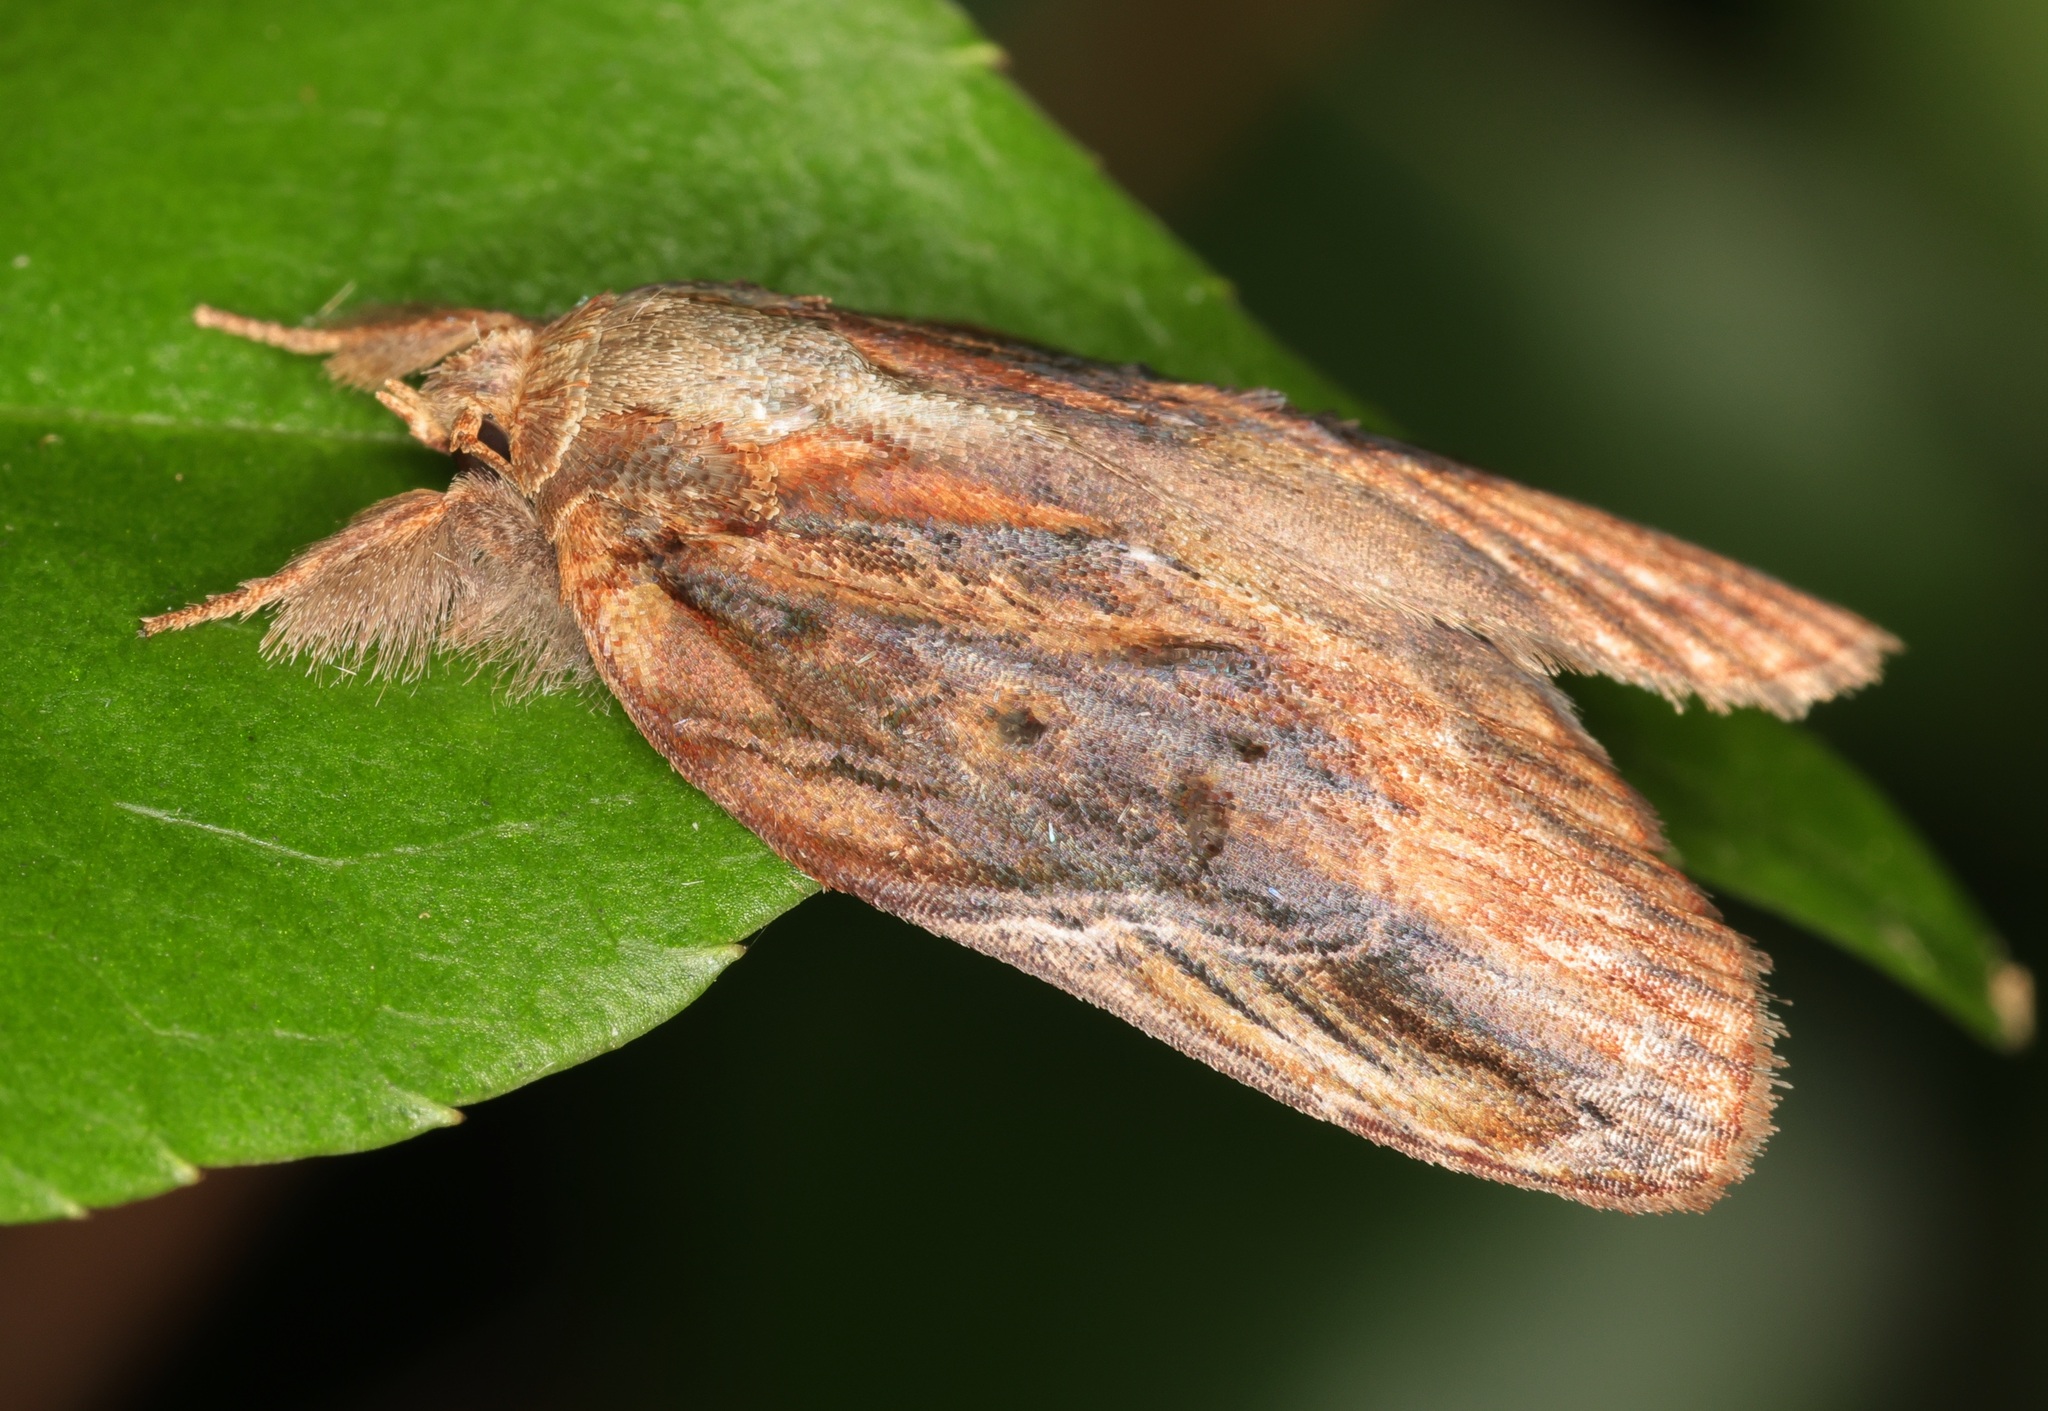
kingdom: Animalia
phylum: Arthropoda
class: Insecta
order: Lepidoptera
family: Nolidae
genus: Lamprothripa
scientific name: Lamprothripa scotia
